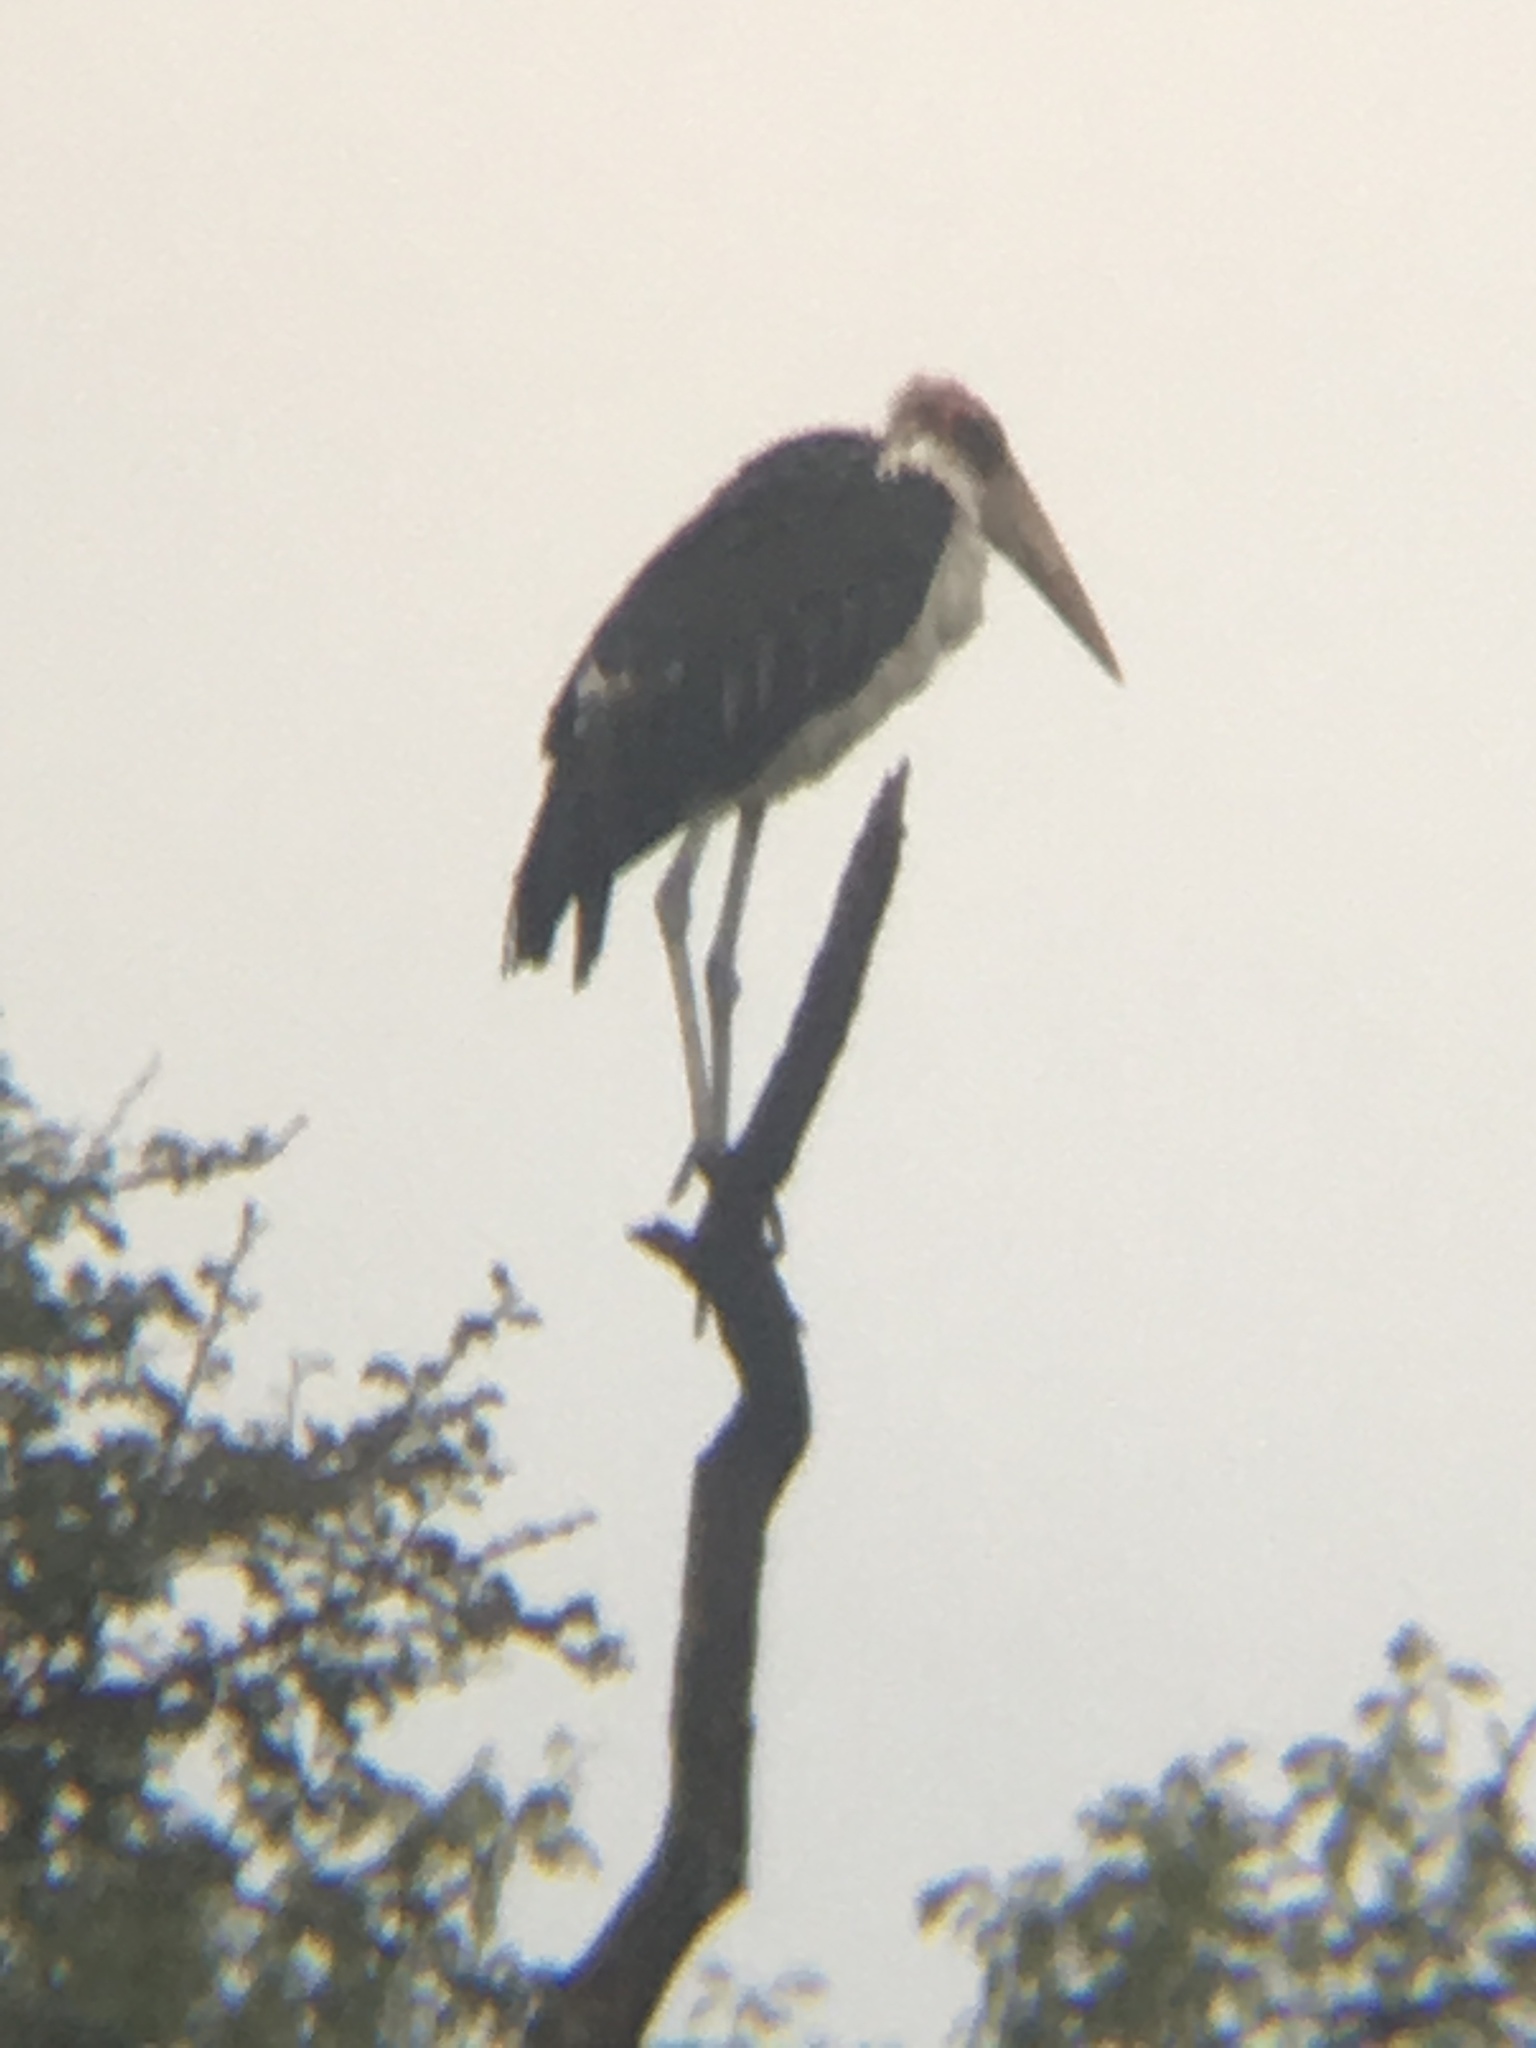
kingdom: Animalia
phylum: Chordata
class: Aves
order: Ciconiiformes
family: Ciconiidae
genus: Leptoptilos
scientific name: Leptoptilos crumenifer
